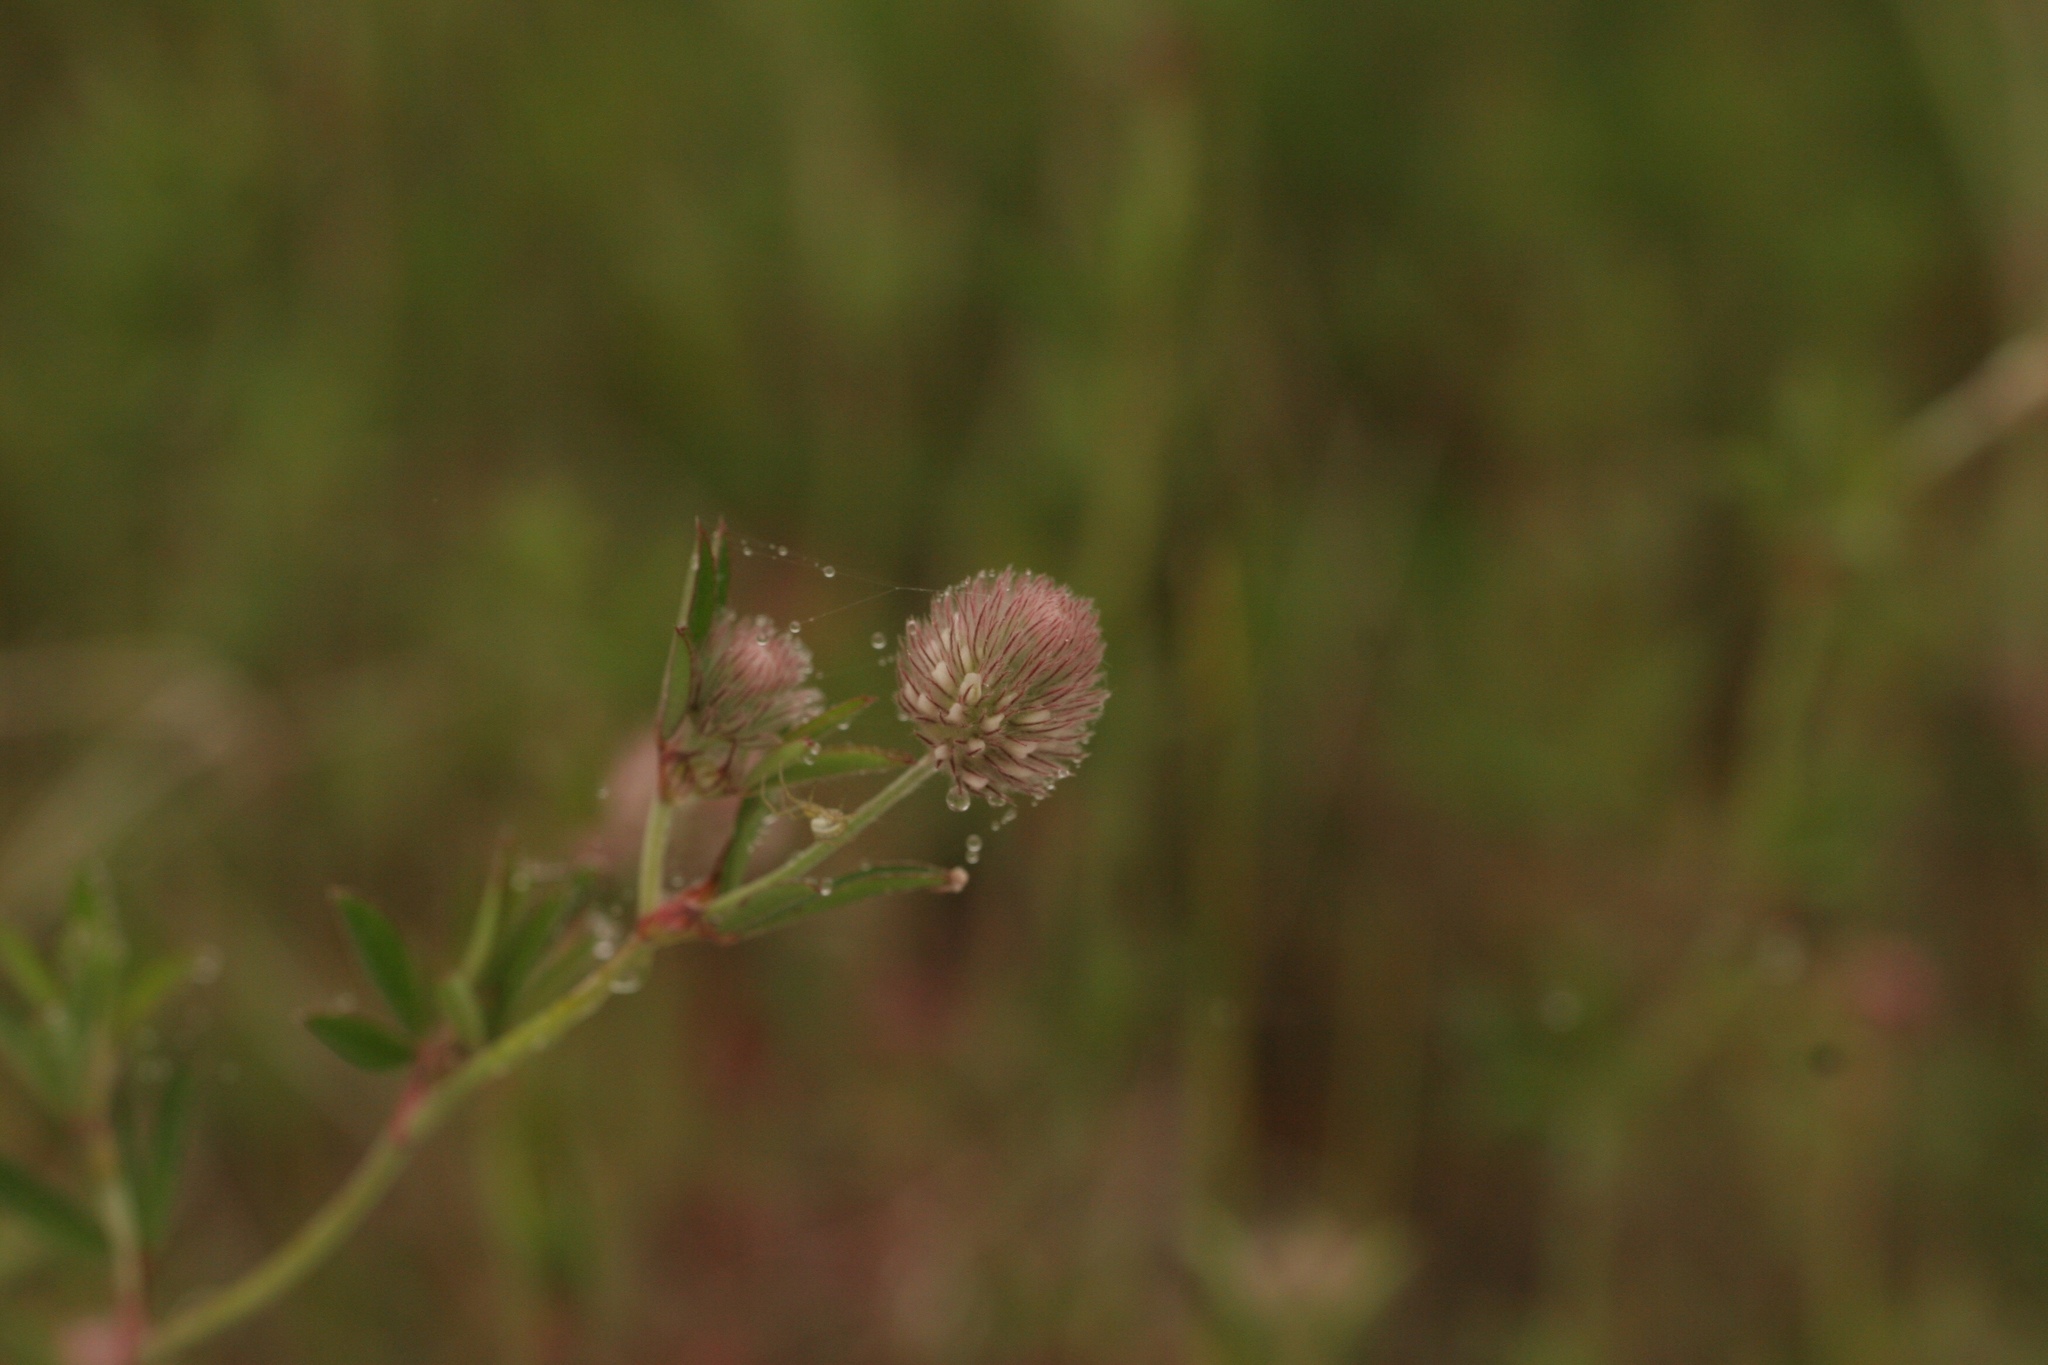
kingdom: Plantae
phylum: Tracheophyta
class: Magnoliopsida
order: Fabales
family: Fabaceae
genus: Trifolium
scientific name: Trifolium arvense
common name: Hare's-foot clover
